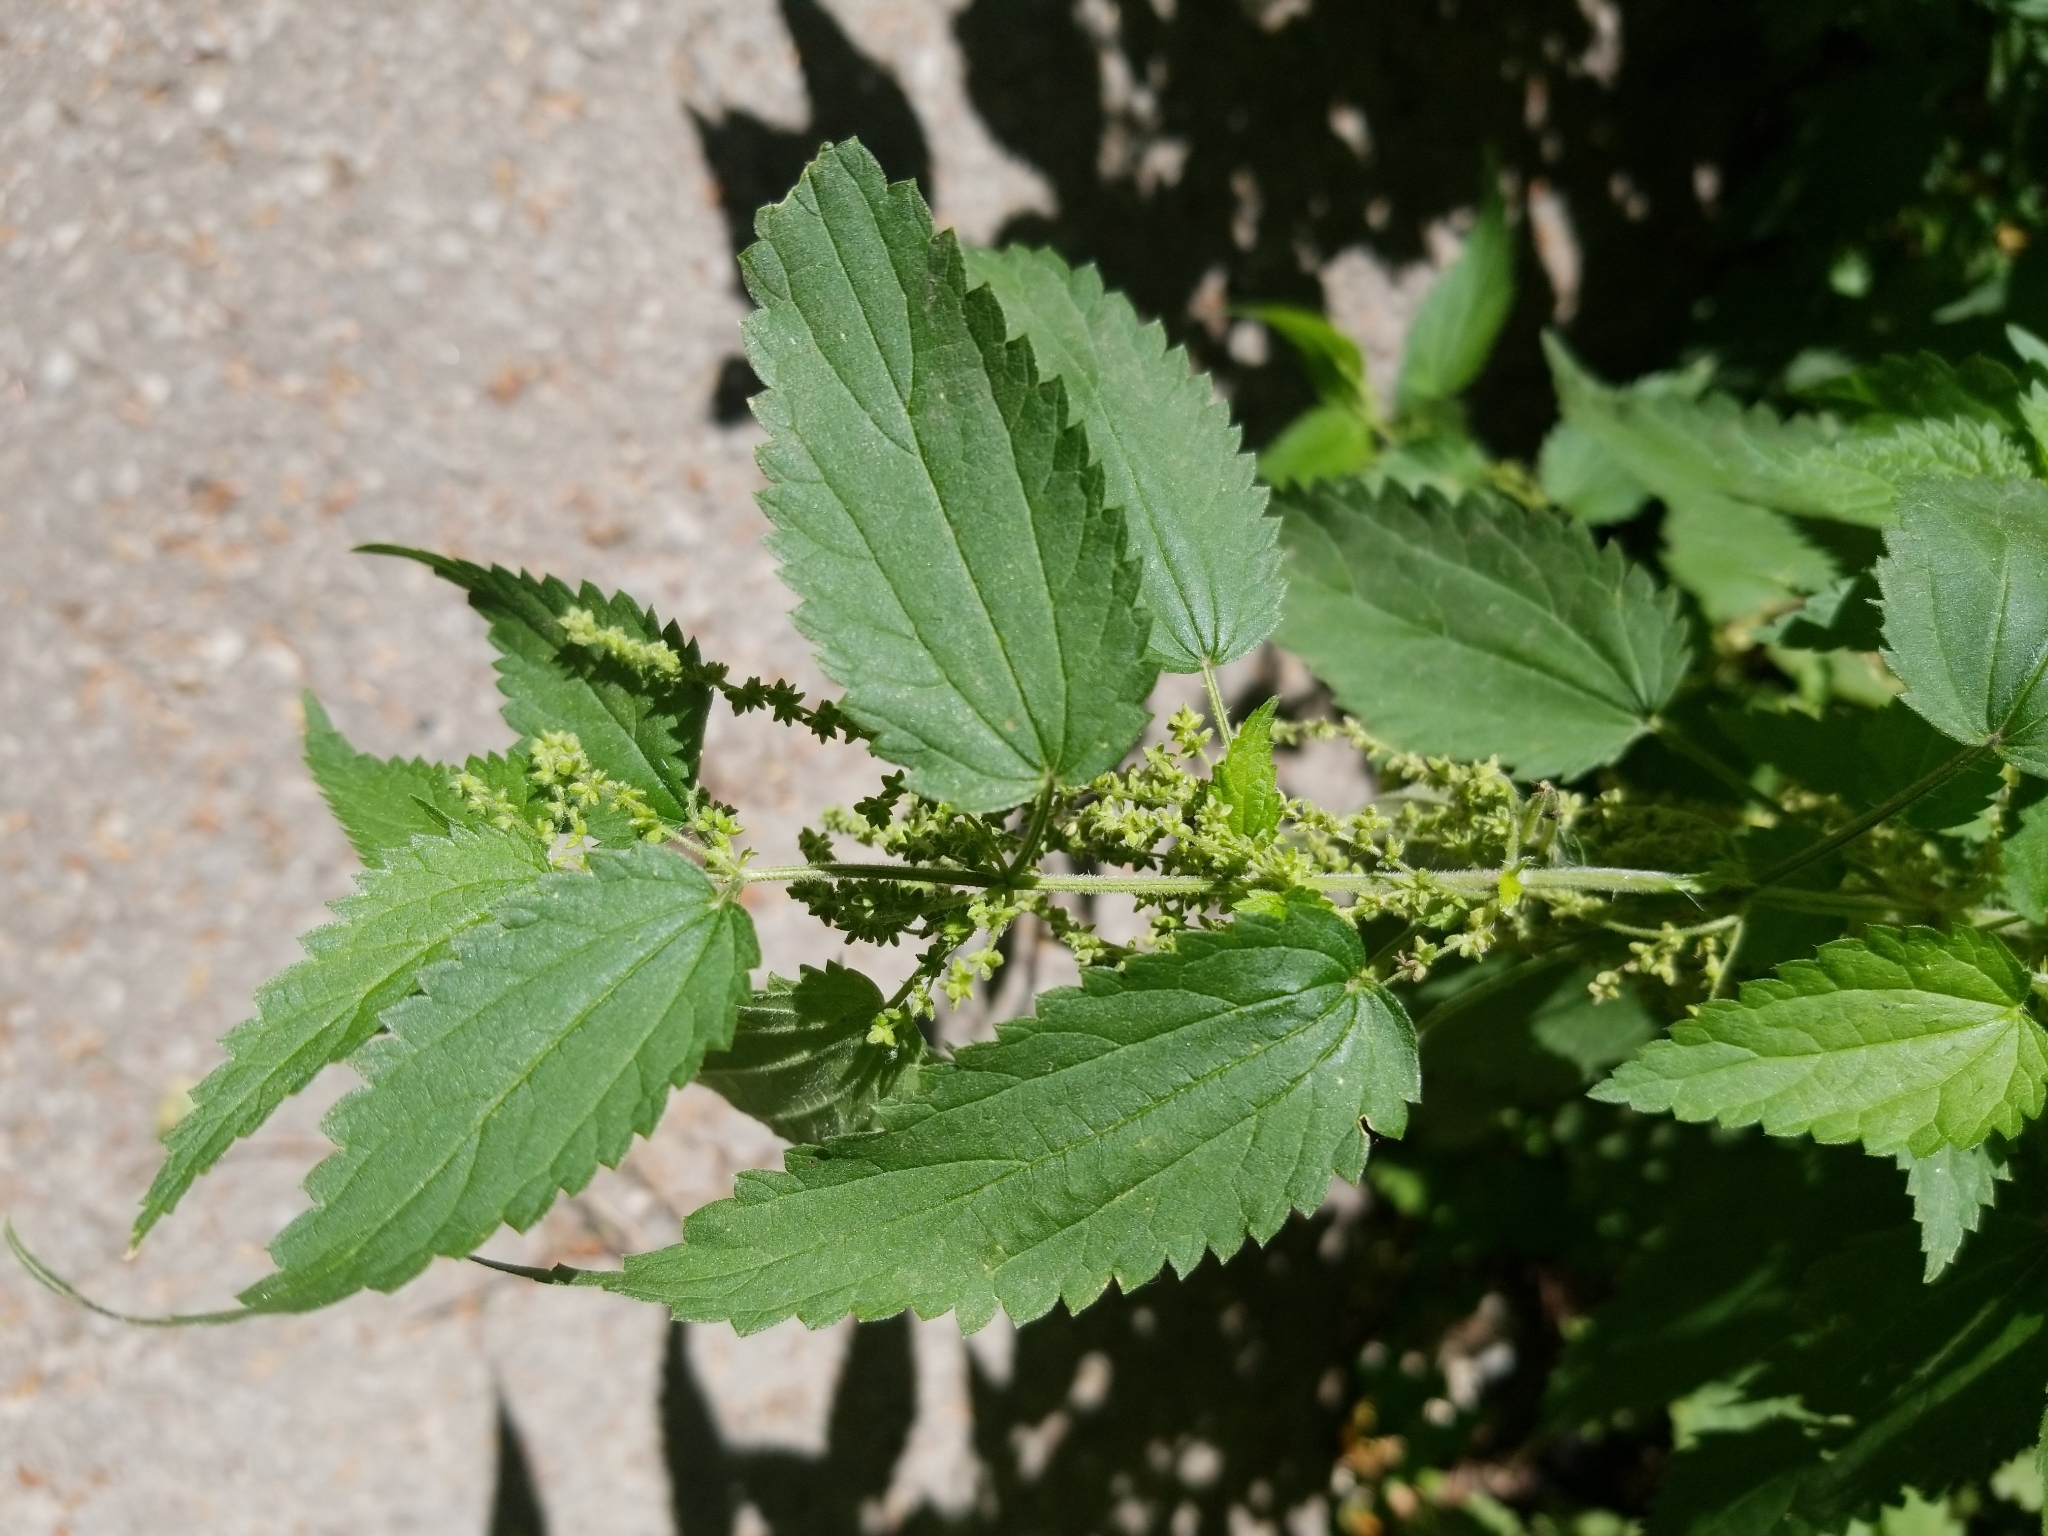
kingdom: Plantae
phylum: Tracheophyta
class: Magnoliopsida
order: Rosales
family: Urticaceae
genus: Urtica
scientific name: Urtica dioica
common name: Common nettle
